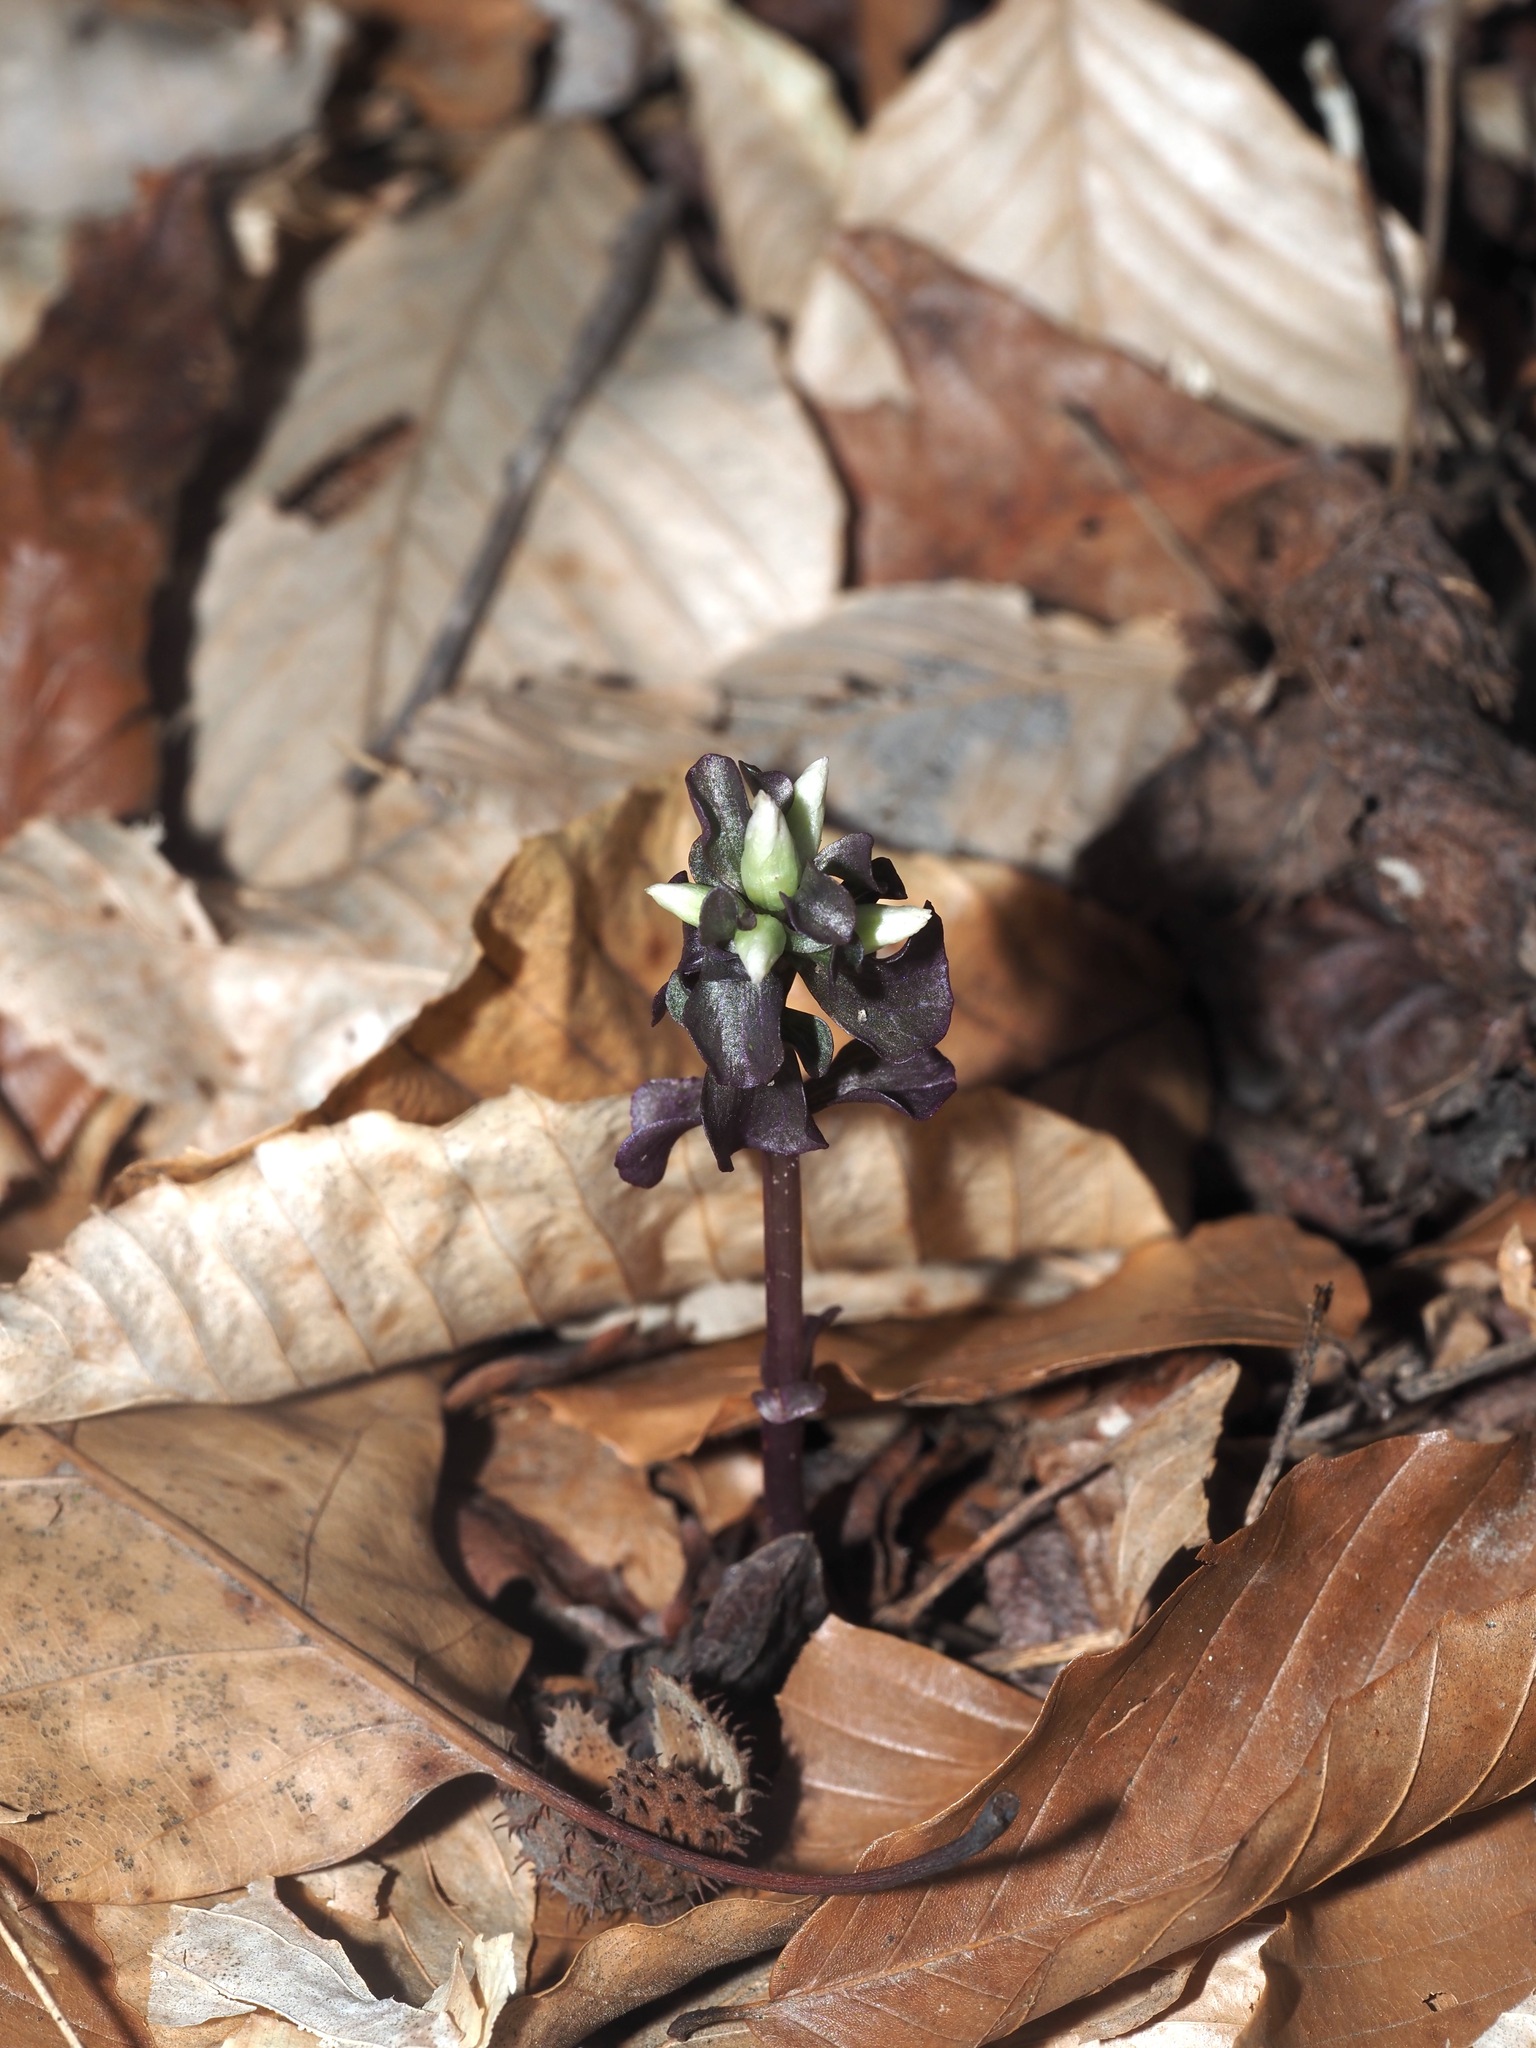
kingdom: Plantae
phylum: Tracheophyta
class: Magnoliopsida
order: Gentianales
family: Gentianaceae
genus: Obolaria
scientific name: Obolaria virginica
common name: Pennywort
